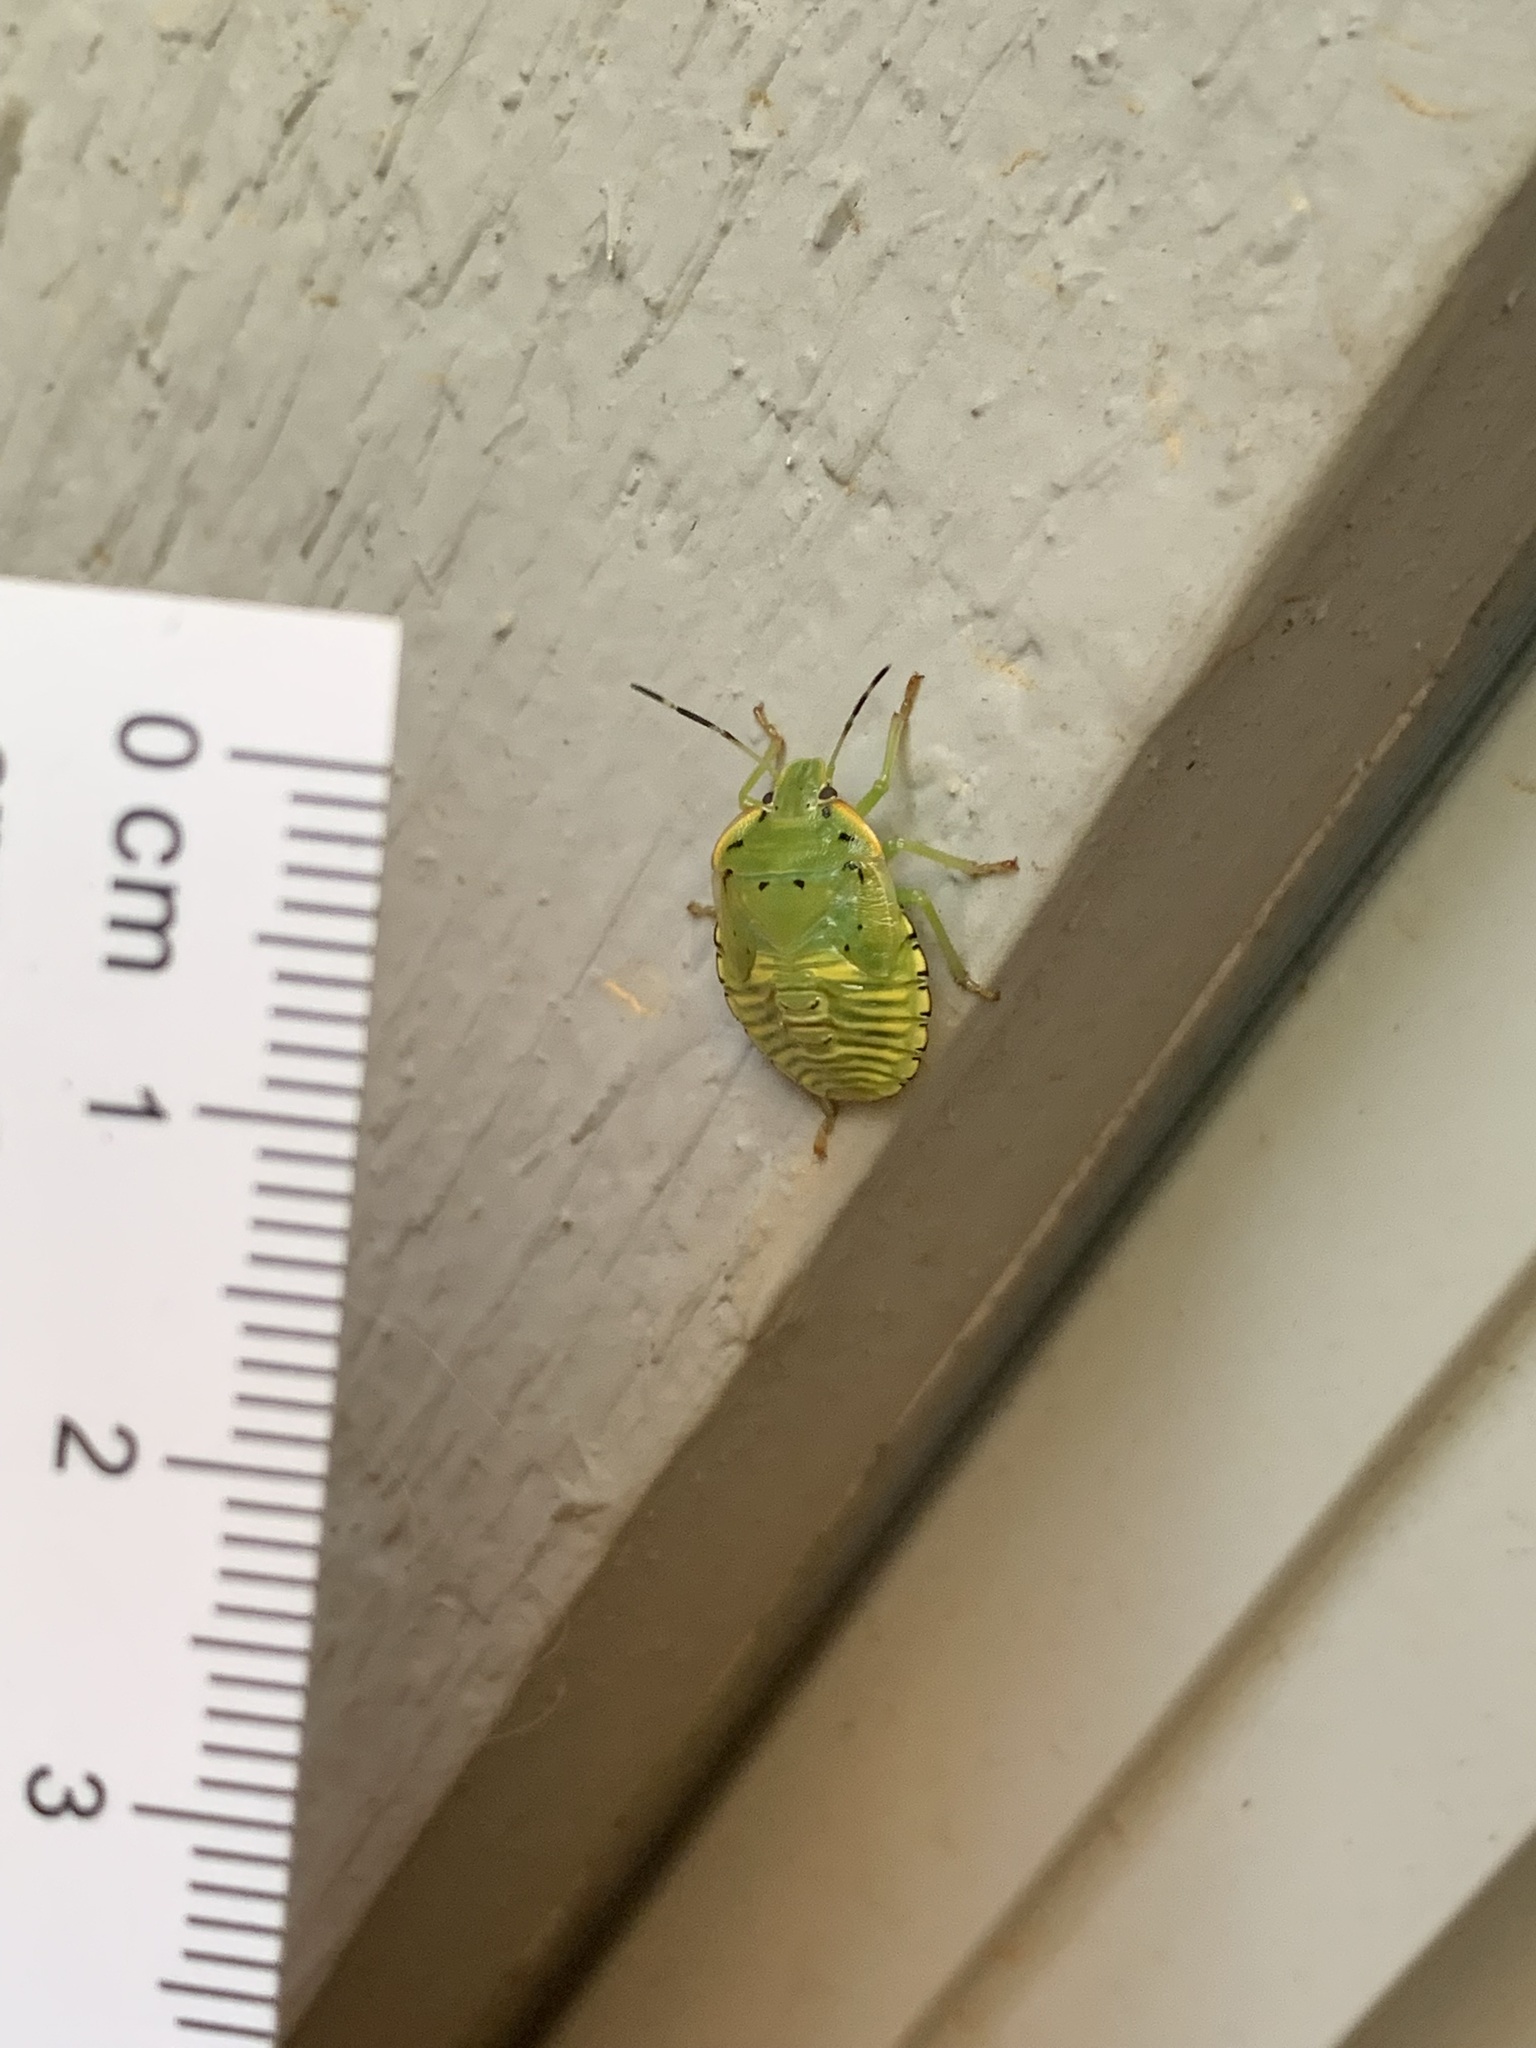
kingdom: Animalia
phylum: Arthropoda
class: Insecta
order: Hemiptera
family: Pentatomidae
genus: Chinavia
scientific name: Chinavia hilaris
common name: Green stink bug
